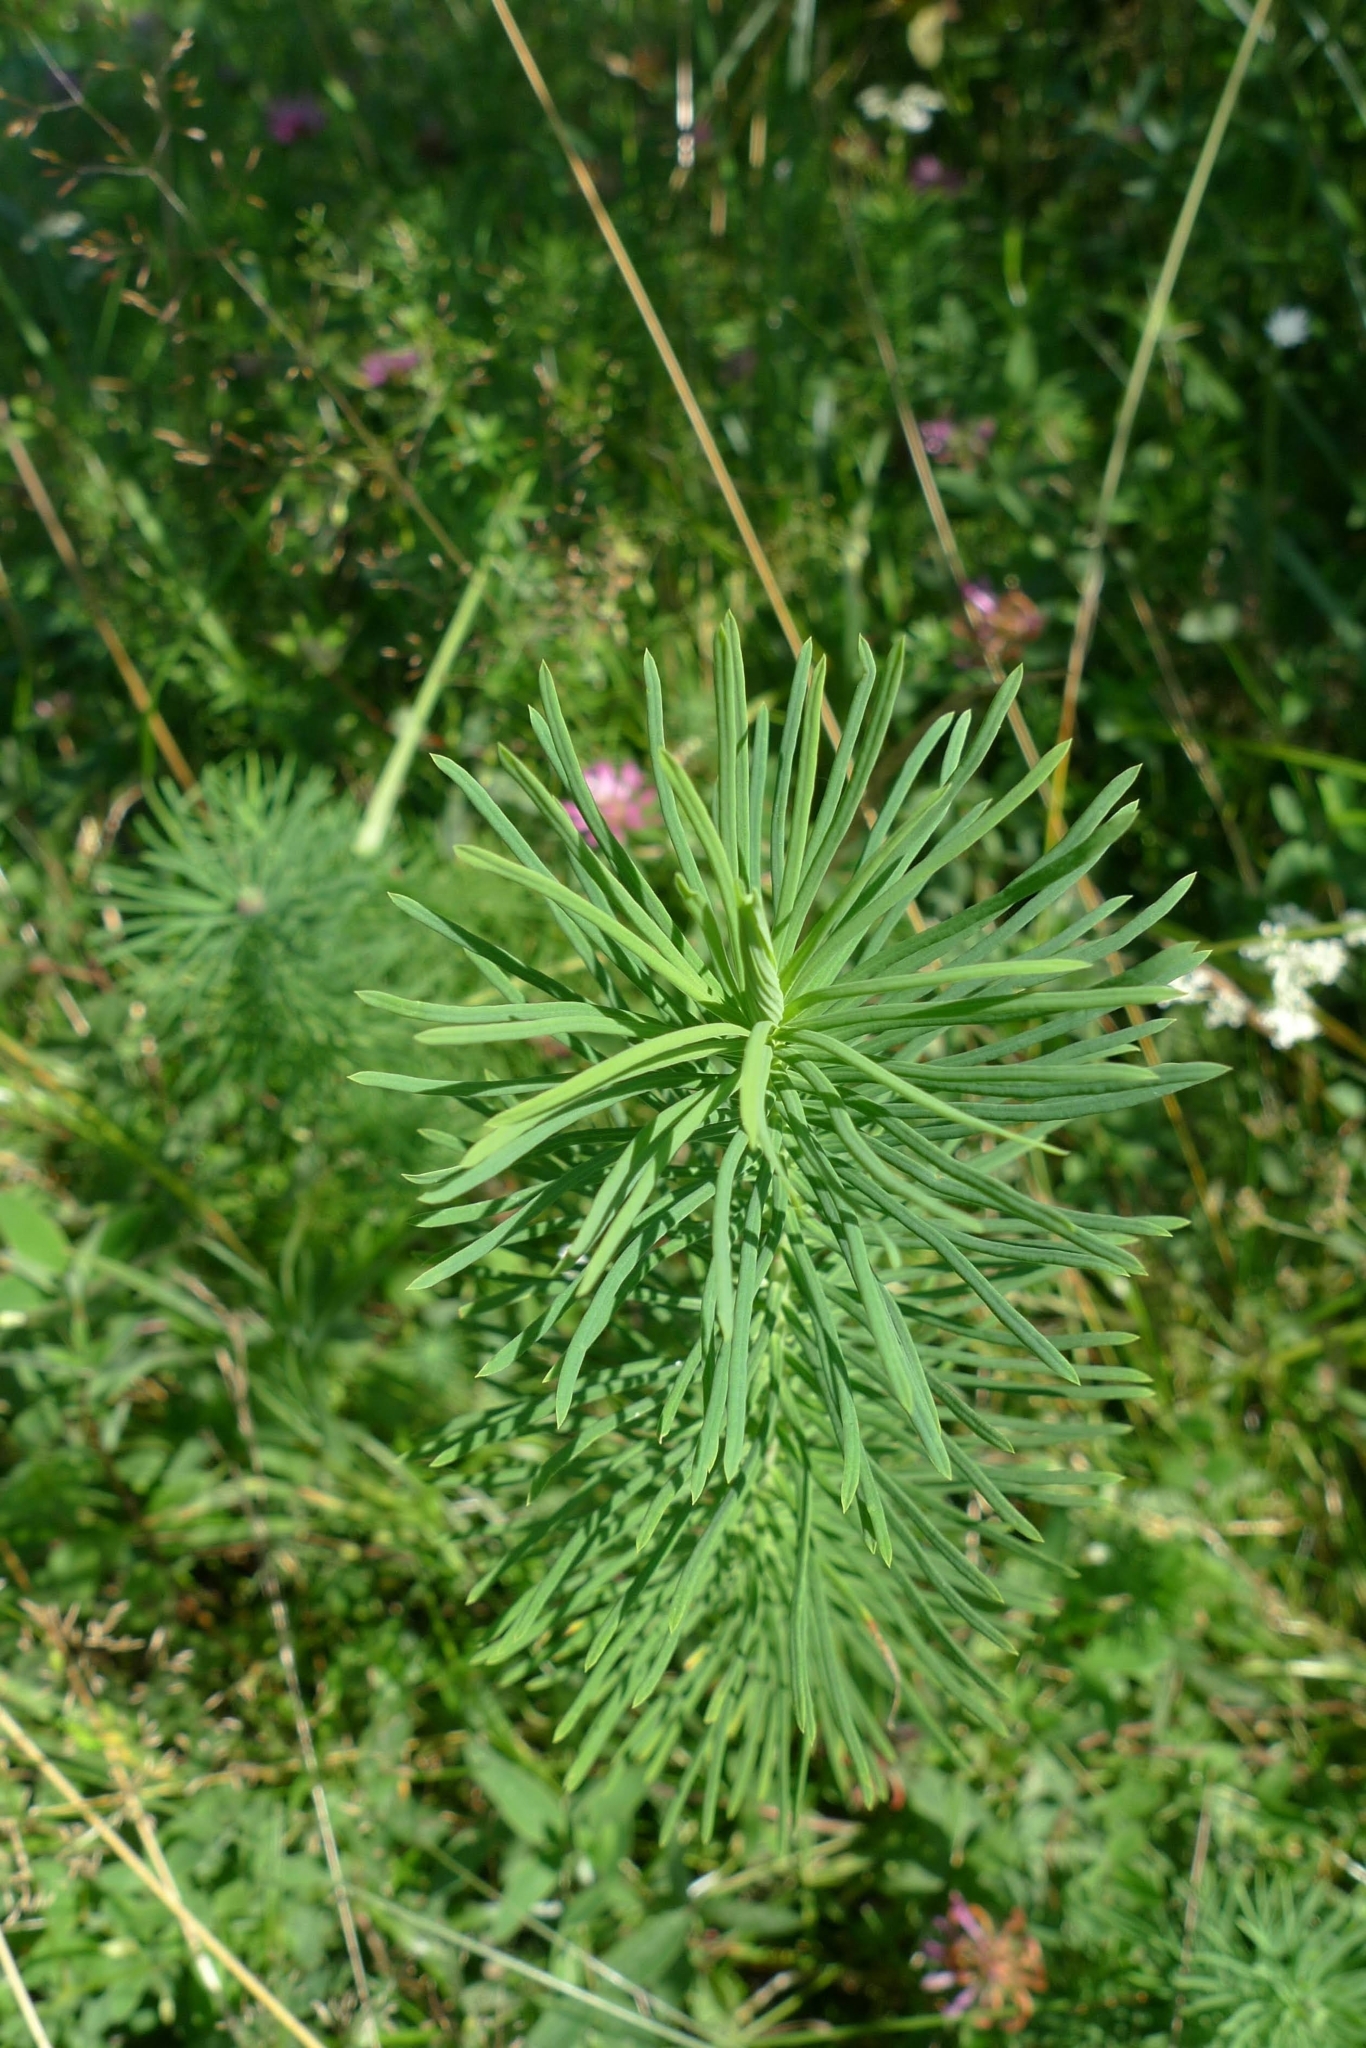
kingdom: Plantae
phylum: Tracheophyta
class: Magnoliopsida
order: Malpighiales
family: Euphorbiaceae
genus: Euphorbia
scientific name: Euphorbia cyparissias
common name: Cypress spurge
